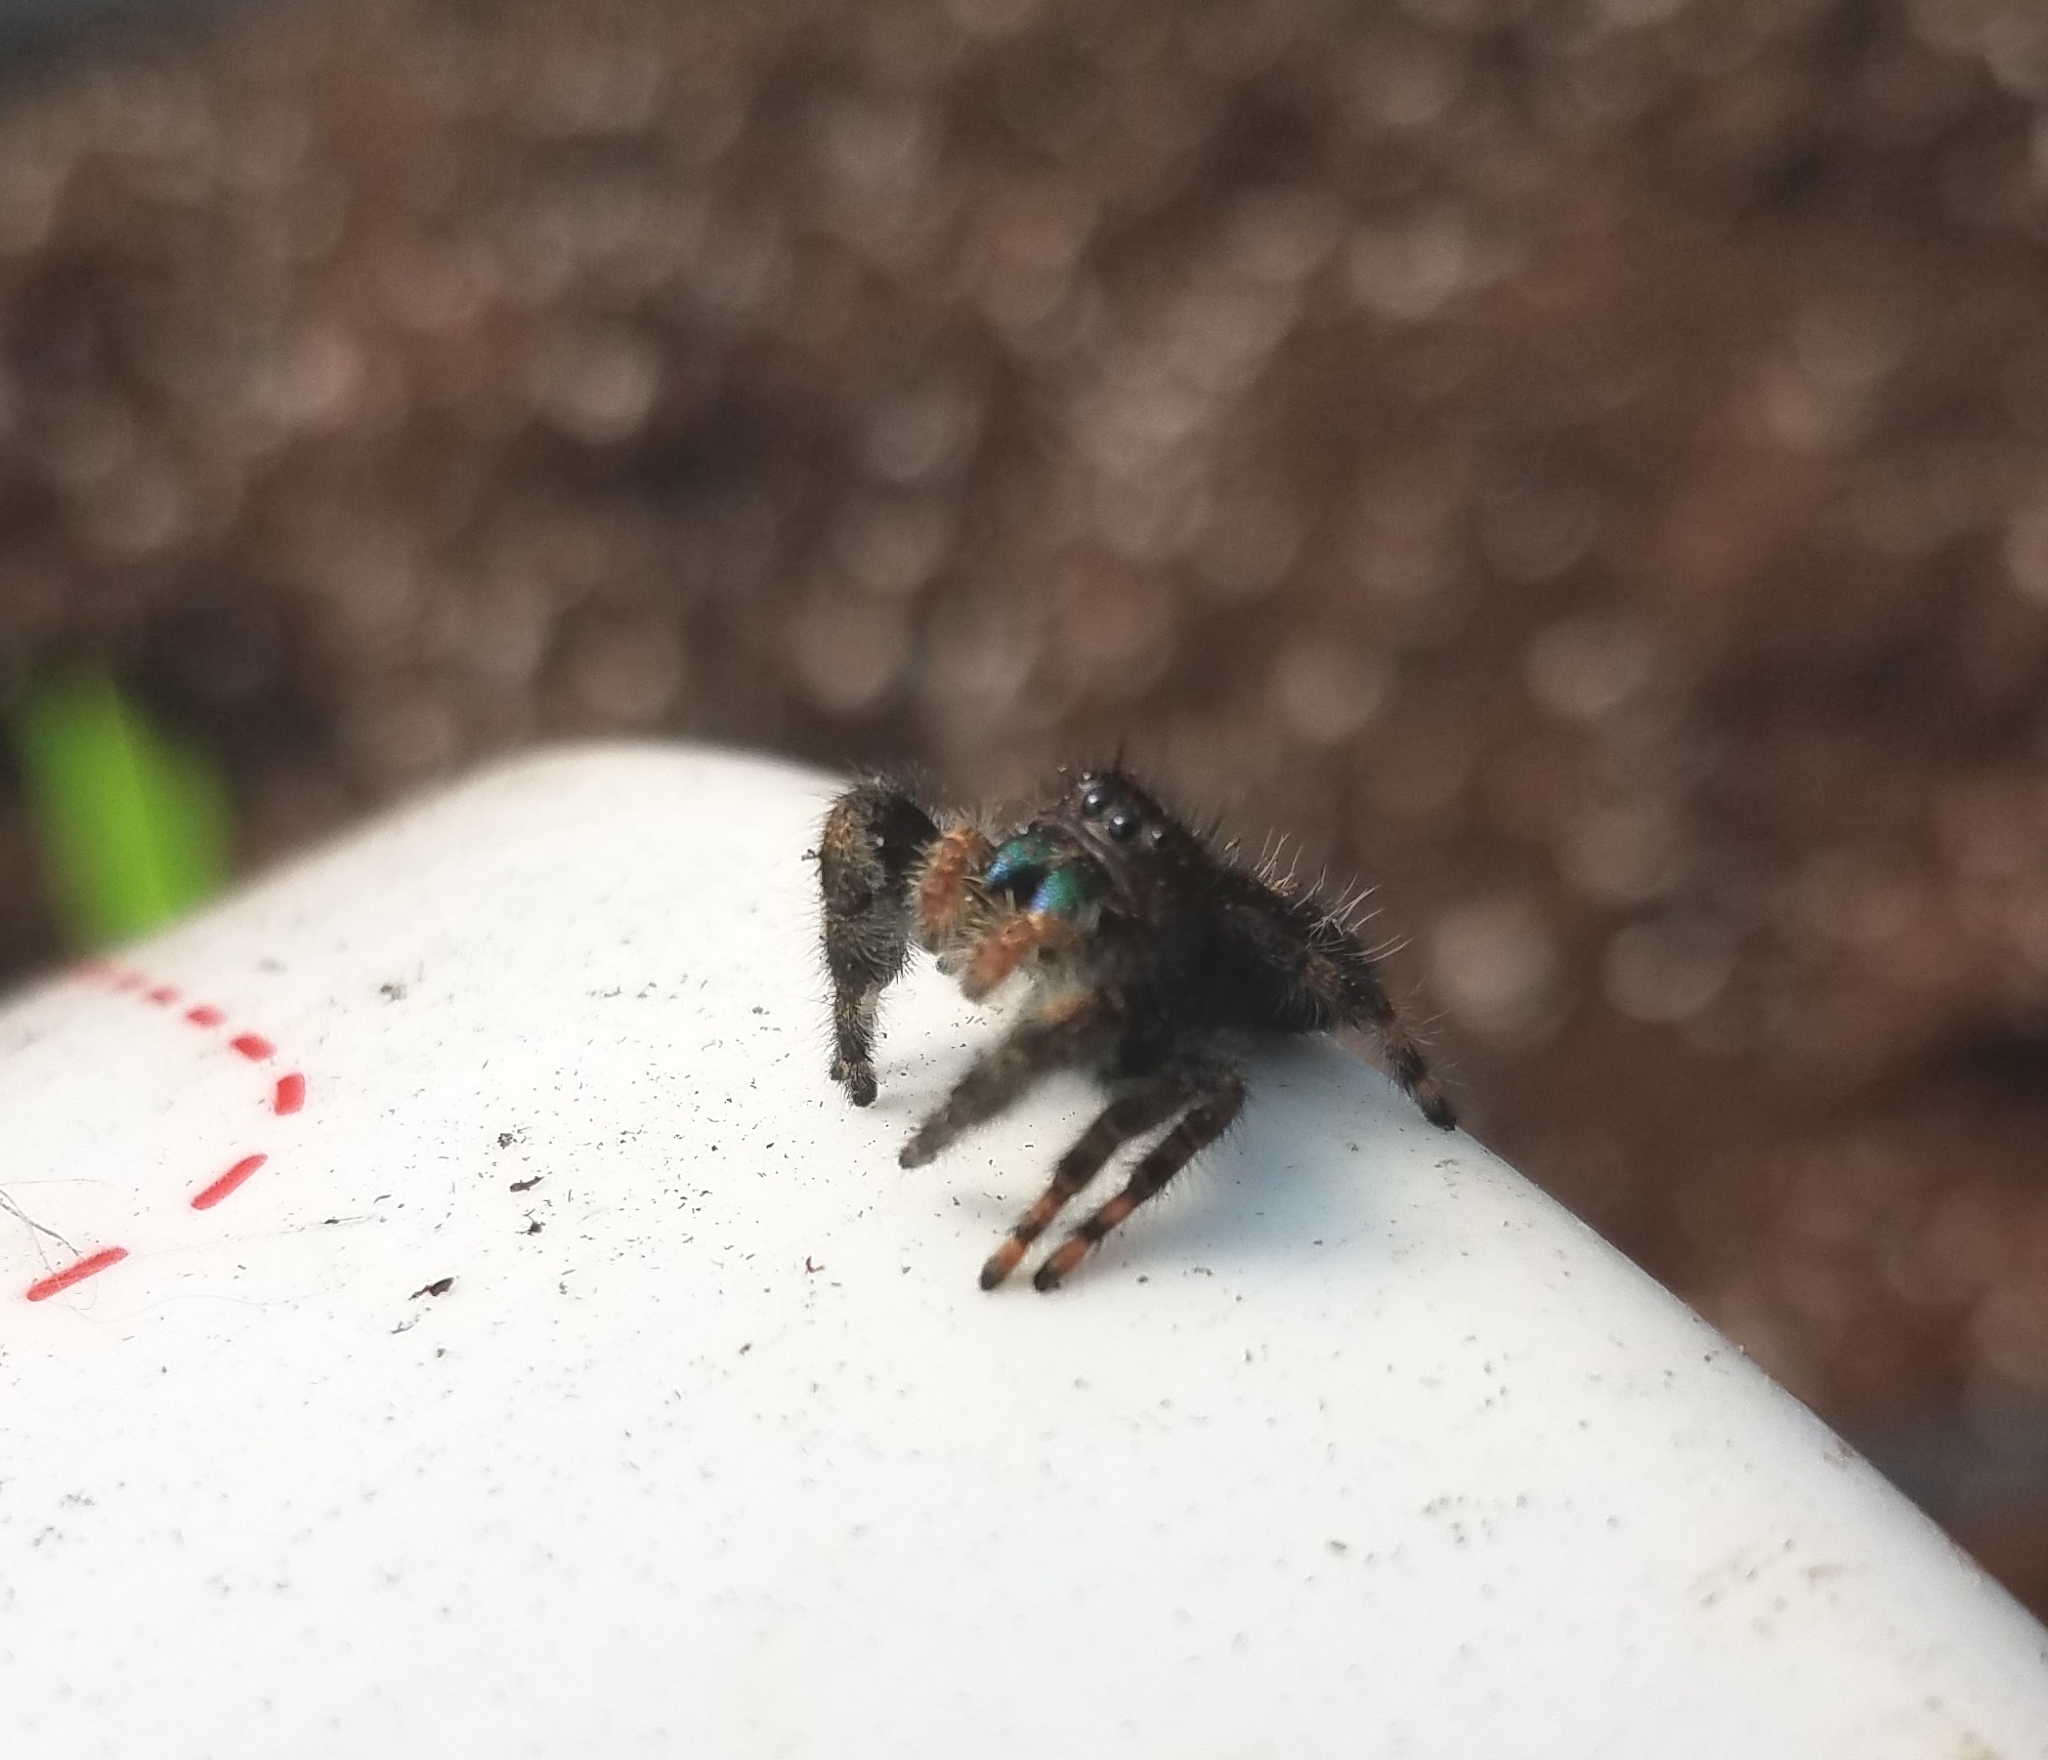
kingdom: Animalia
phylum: Arthropoda
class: Arachnida
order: Araneae
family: Salticidae
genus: Phidippus
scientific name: Phidippus audax
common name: Bold jumper
